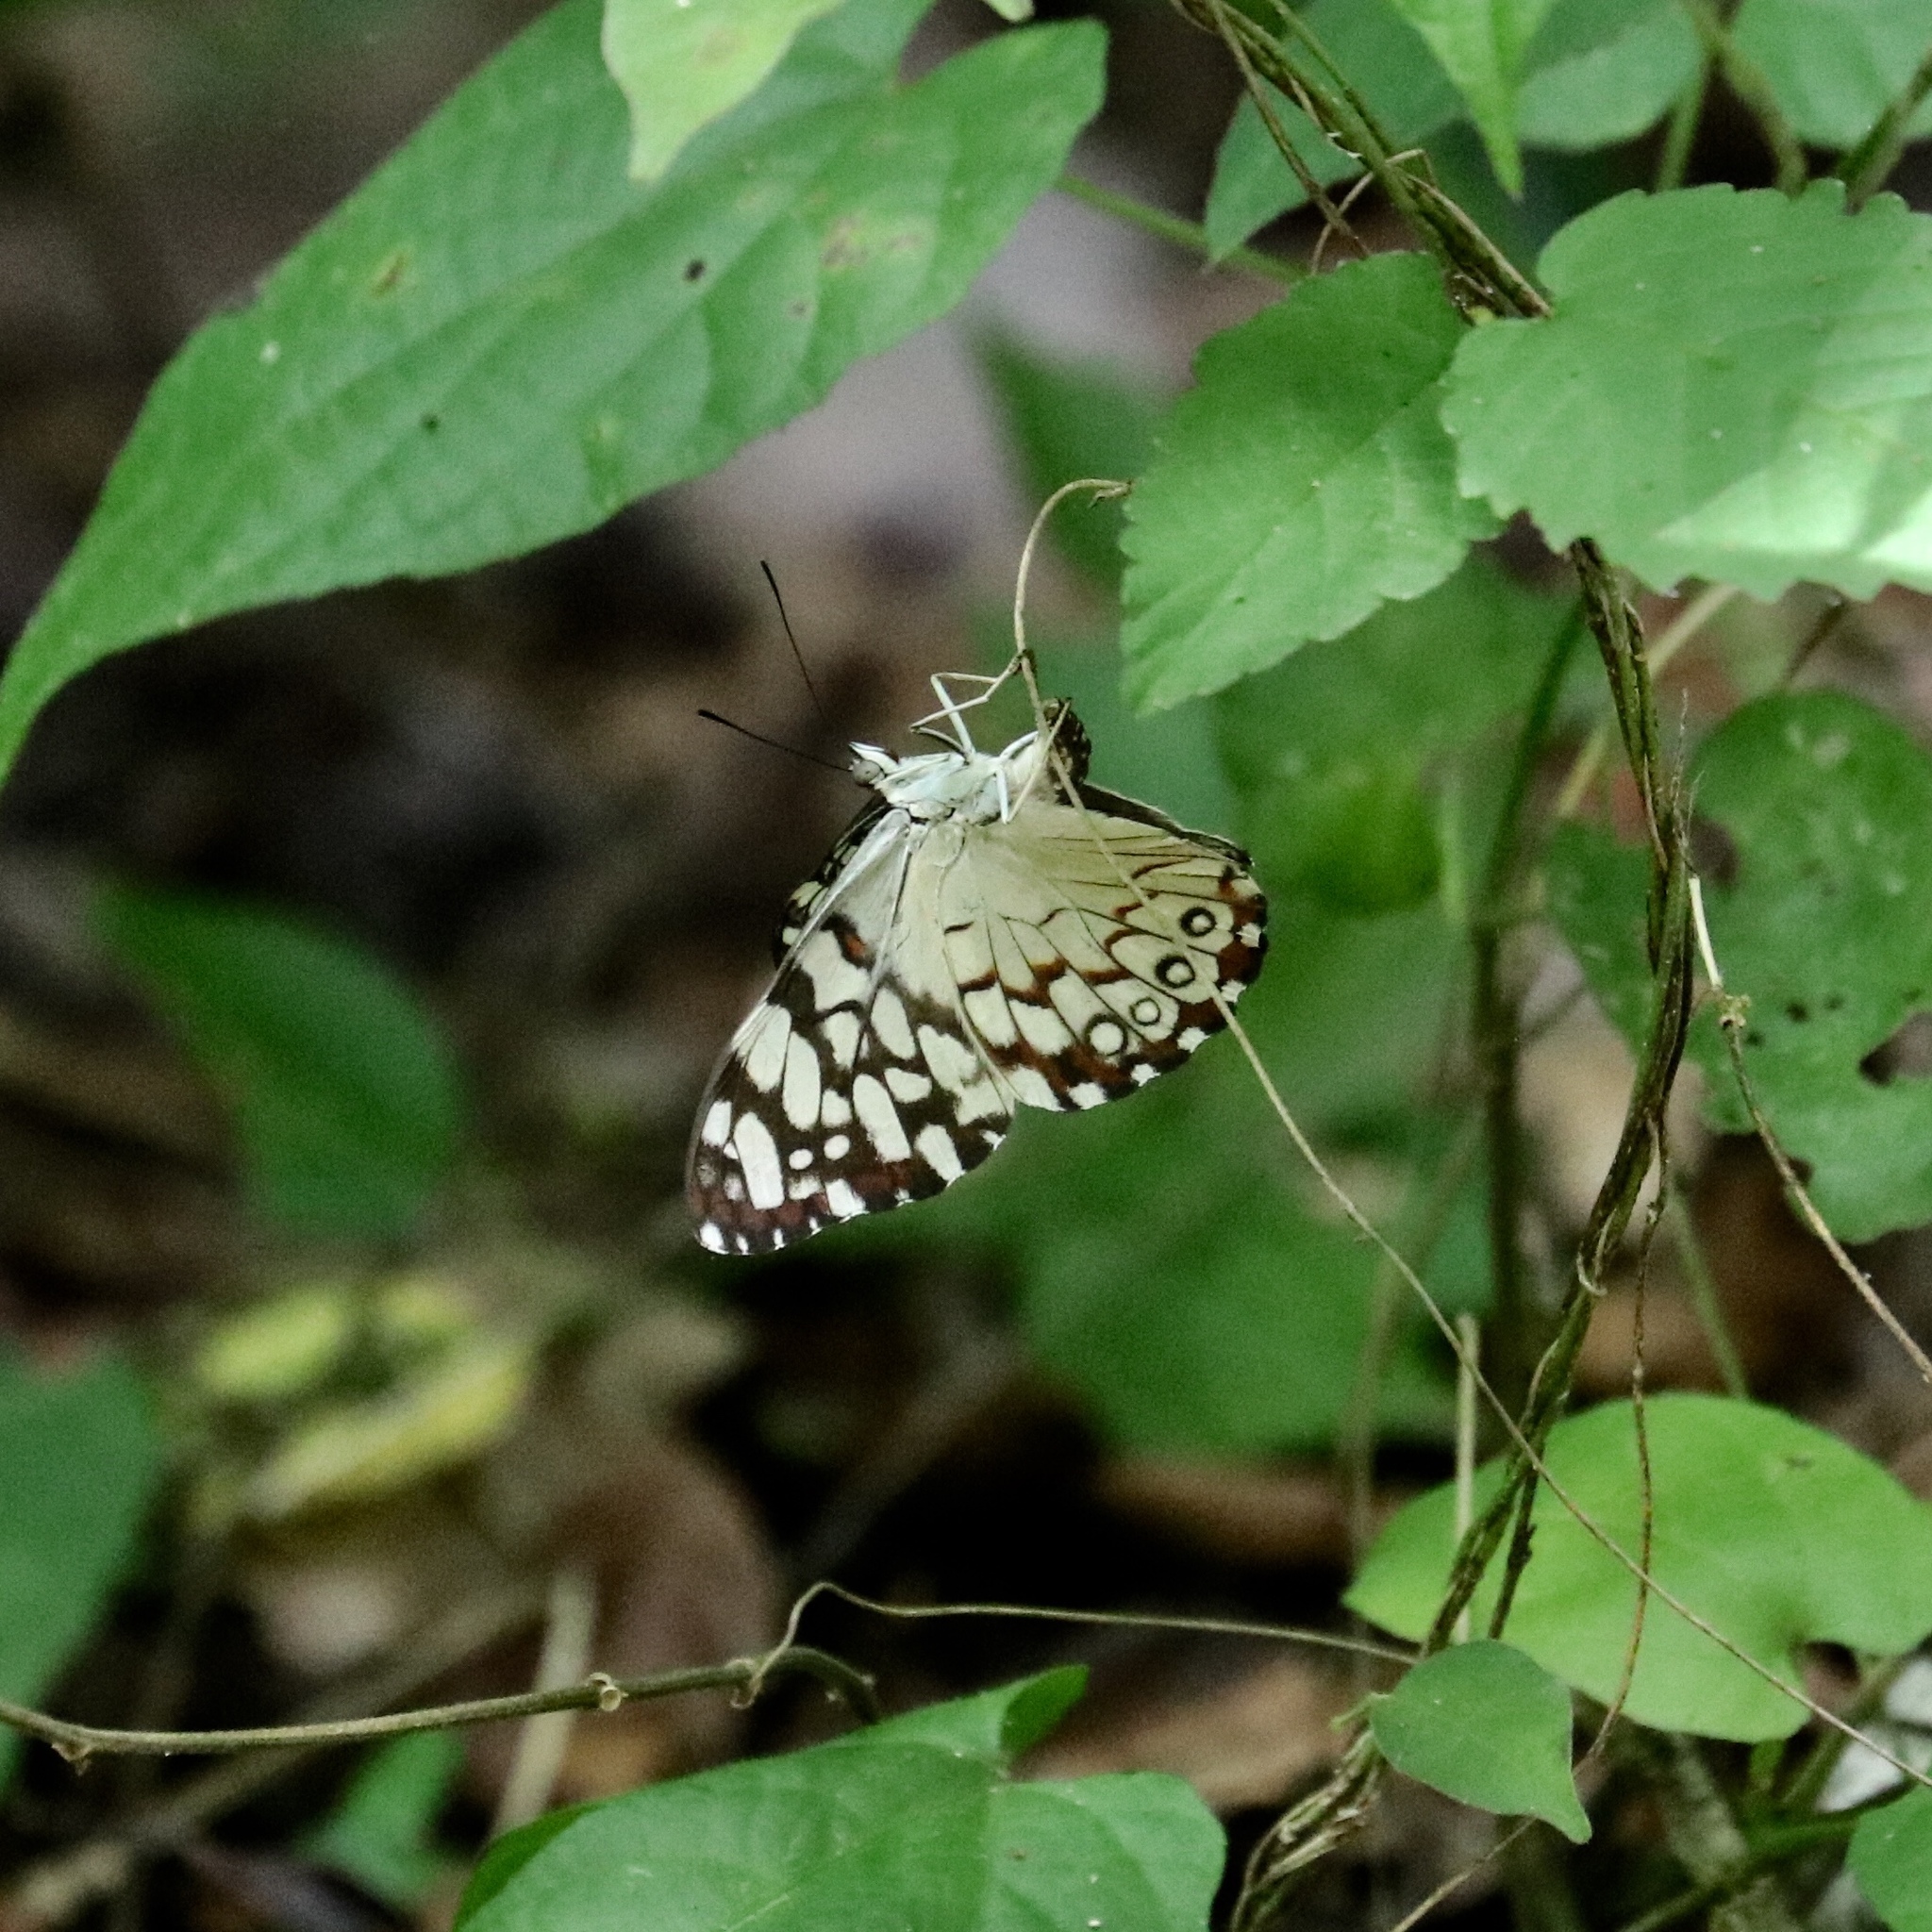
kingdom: Animalia
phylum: Arthropoda
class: Insecta
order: Lepidoptera
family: Nymphalidae
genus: Hamadryas
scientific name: Hamadryas iphthime
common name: Brownish cracker
